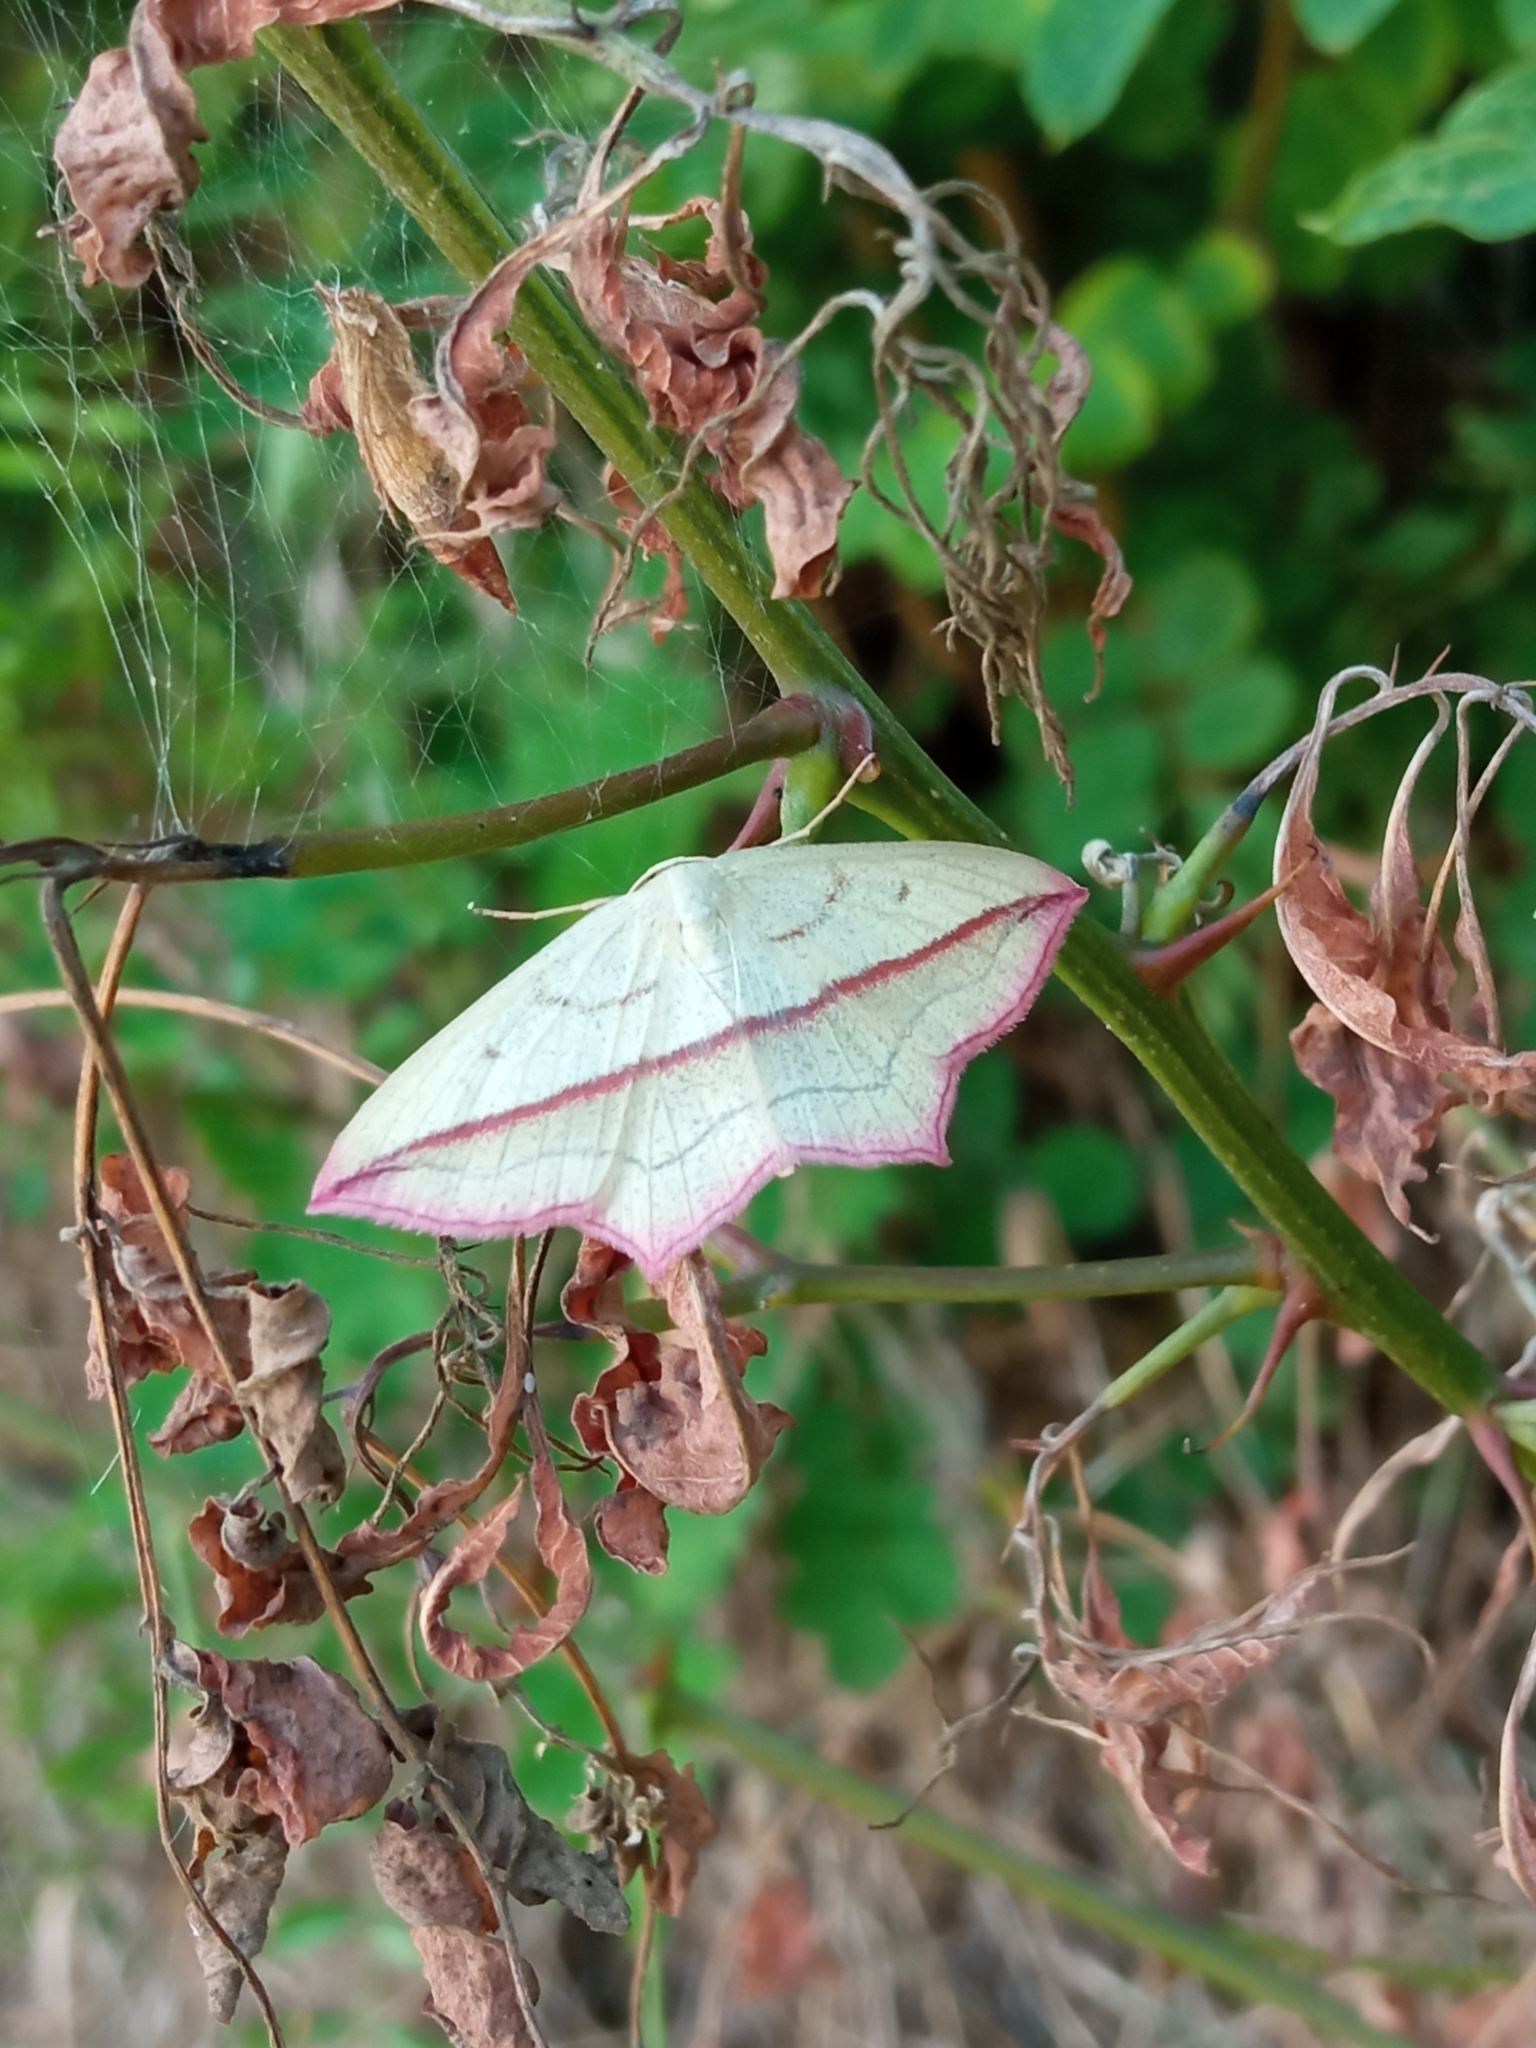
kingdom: Animalia
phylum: Arthropoda
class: Insecta
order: Lepidoptera
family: Geometridae
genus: Timandra
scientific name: Timandra comae
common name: Blood-vein
